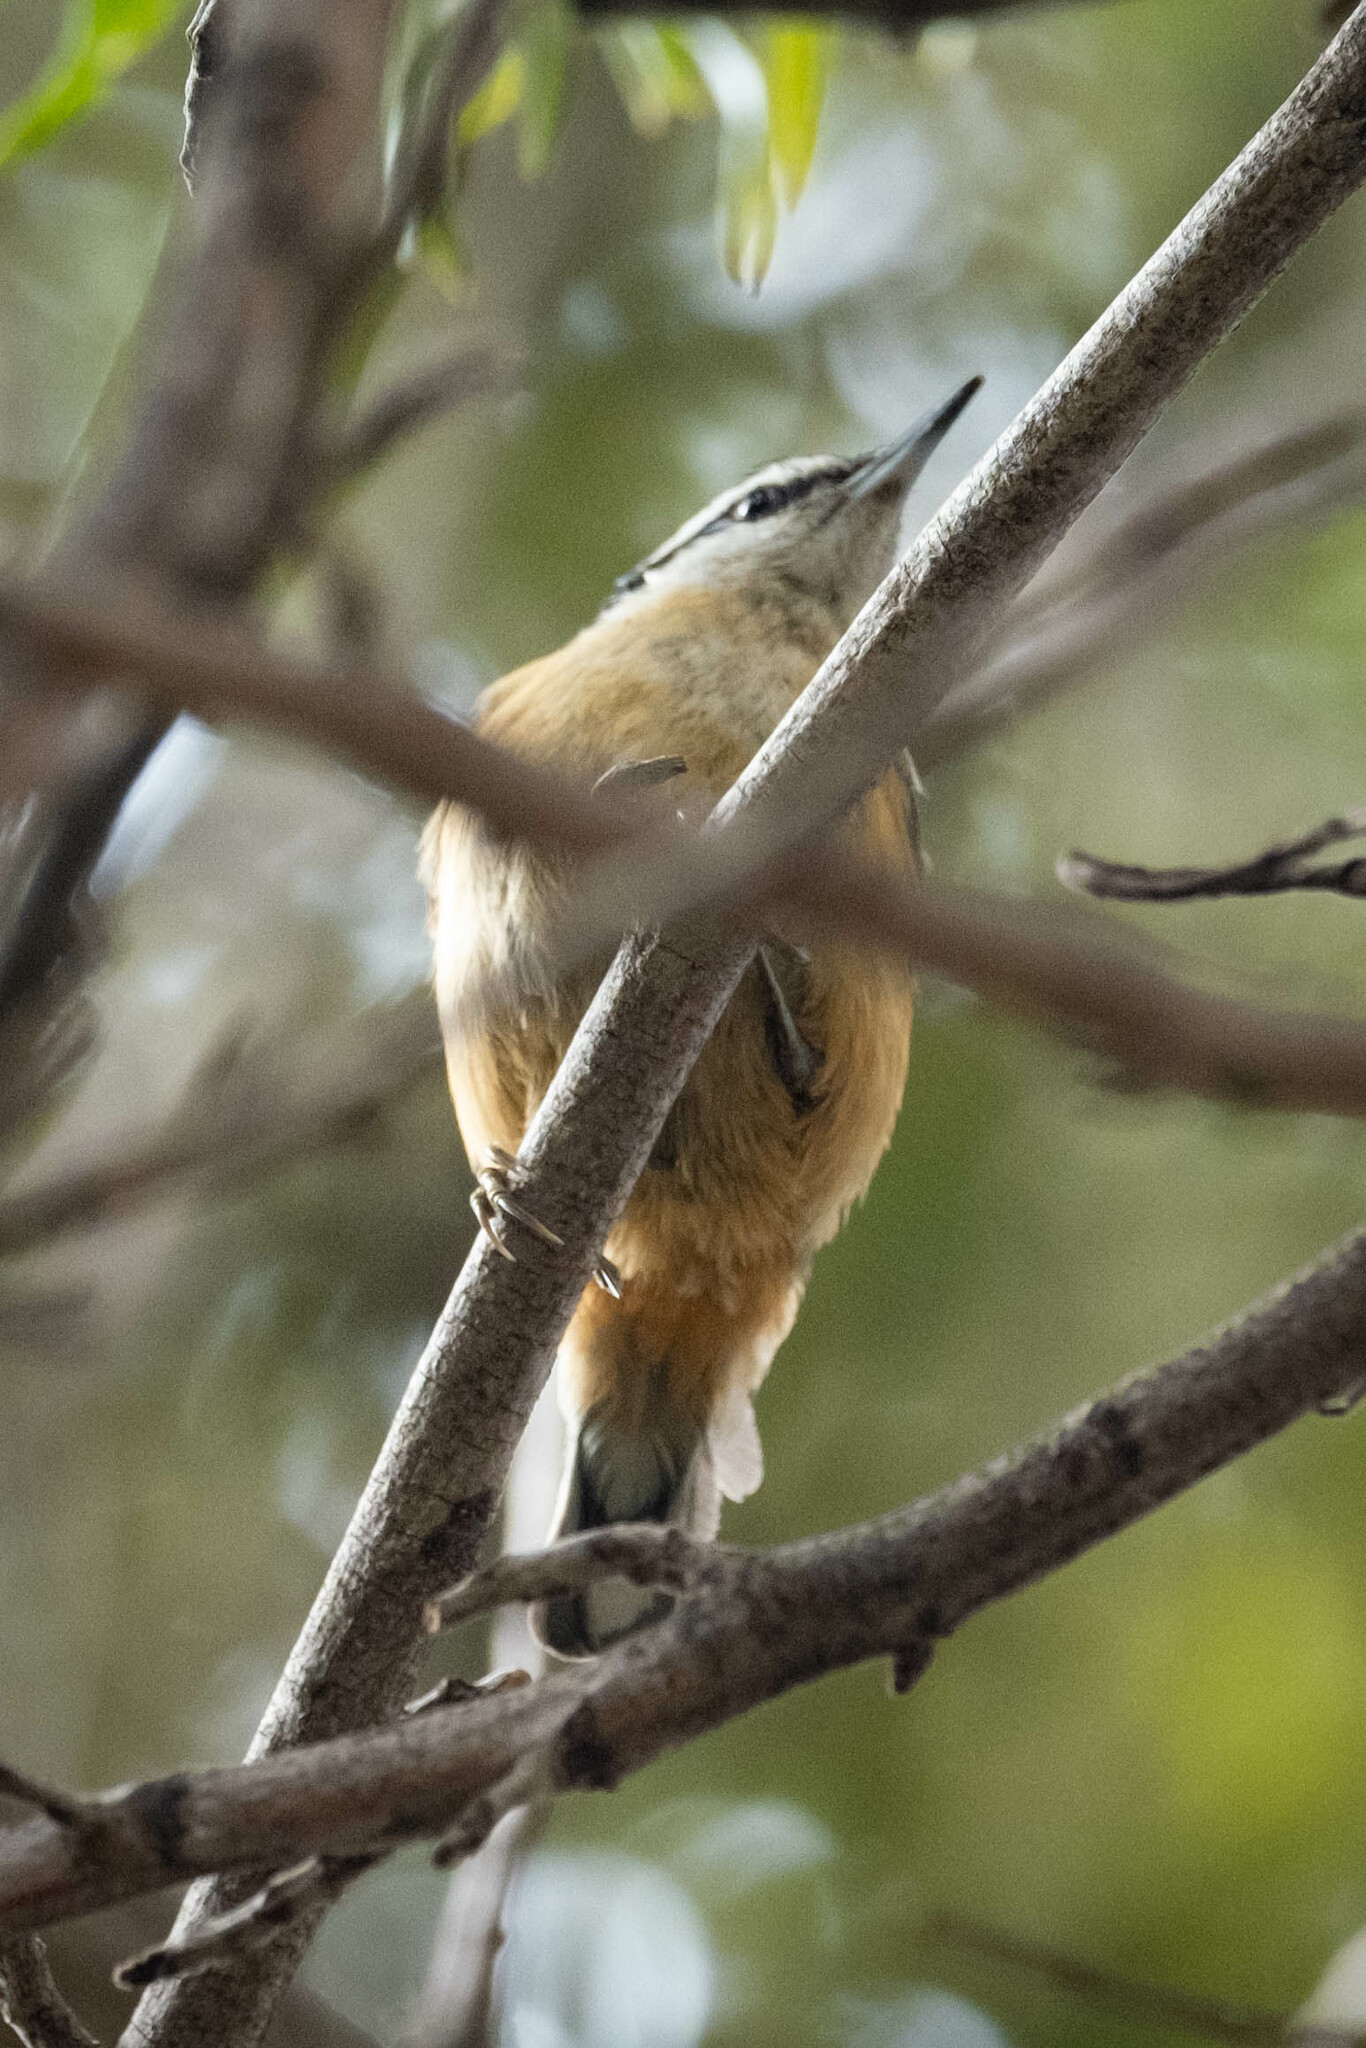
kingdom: Animalia
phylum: Chordata
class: Aves
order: Passeriformes
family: Sittidae
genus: Sitta
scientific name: Sitta canadensis
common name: Red-breasted nuthatch
